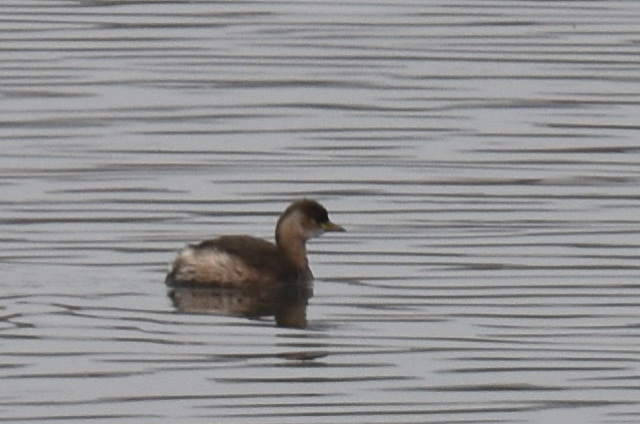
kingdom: Animalia
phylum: Chordata
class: Aves
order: Podicipediformes
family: Podicipedidae
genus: Tachybaptus
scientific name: Tachybaptus ruficollis
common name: Little grebe
